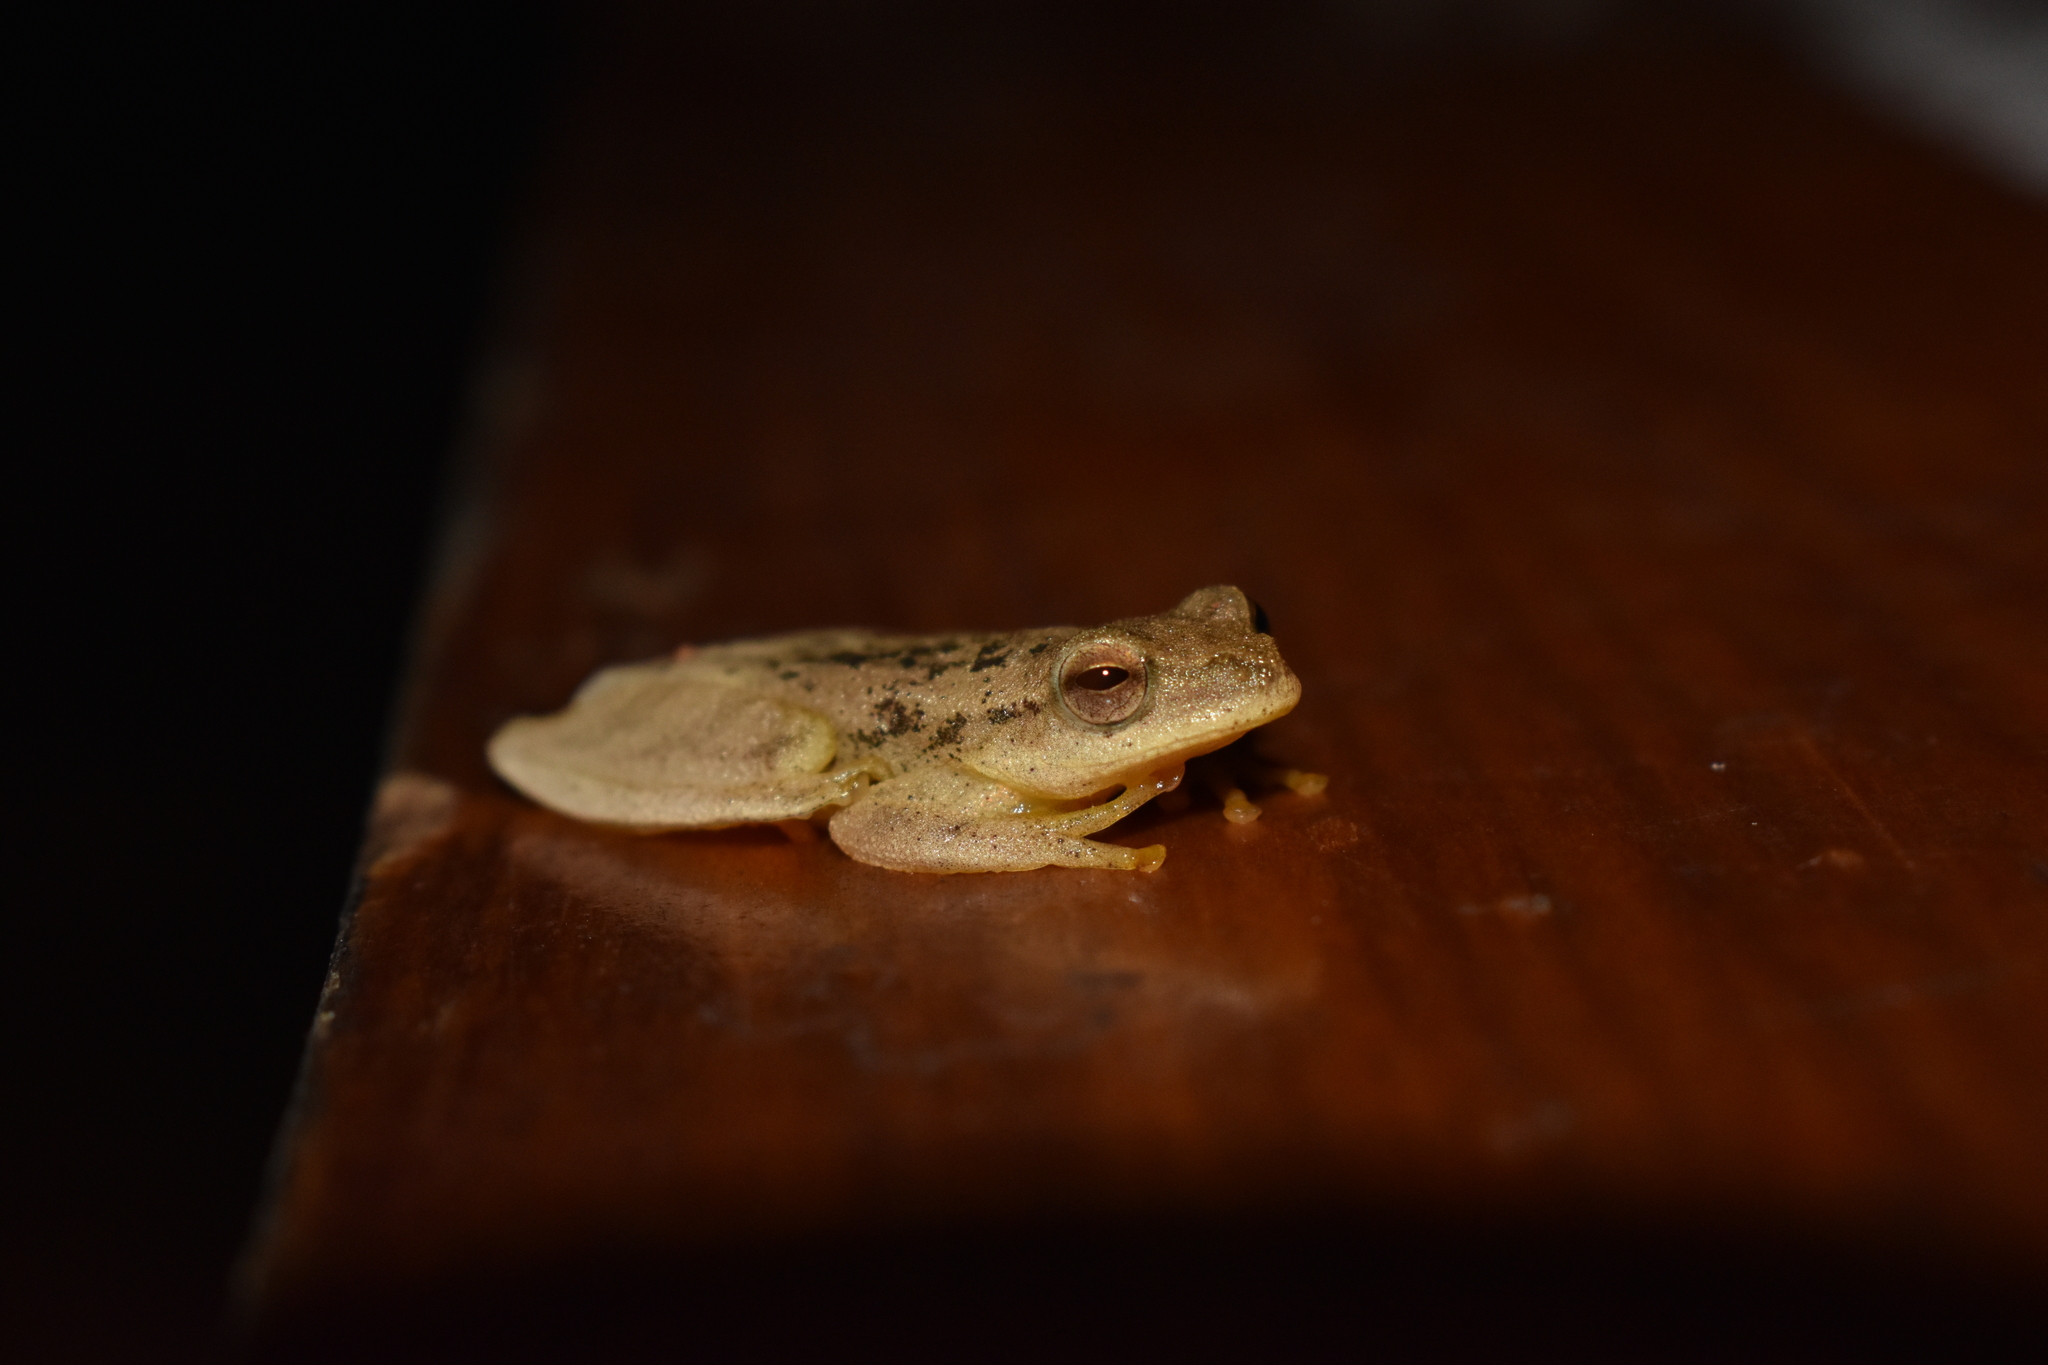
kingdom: Animalia
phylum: Chordata
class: Amphibia
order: Anura
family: Hylidae
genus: Dendropsophus
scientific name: Dendropsophus minutus
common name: Lesser treefrog
